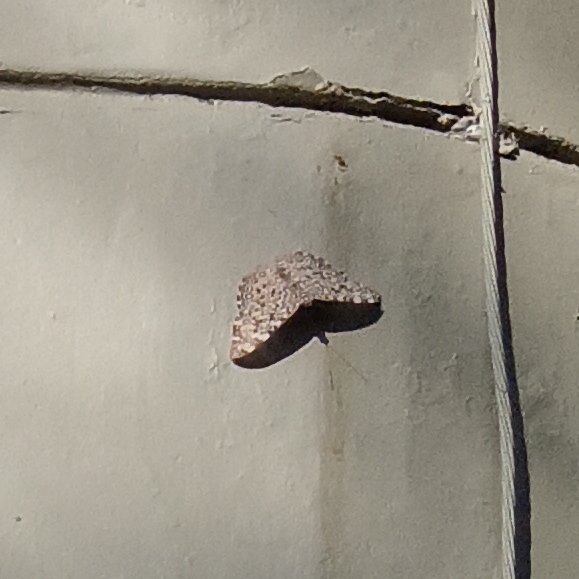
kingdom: Animalia
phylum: Arthropoda
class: Insecta
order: Lepidoptera
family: Nymphalidae
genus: Hamadryas
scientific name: Hamadryas feronia
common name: Variable cracker
